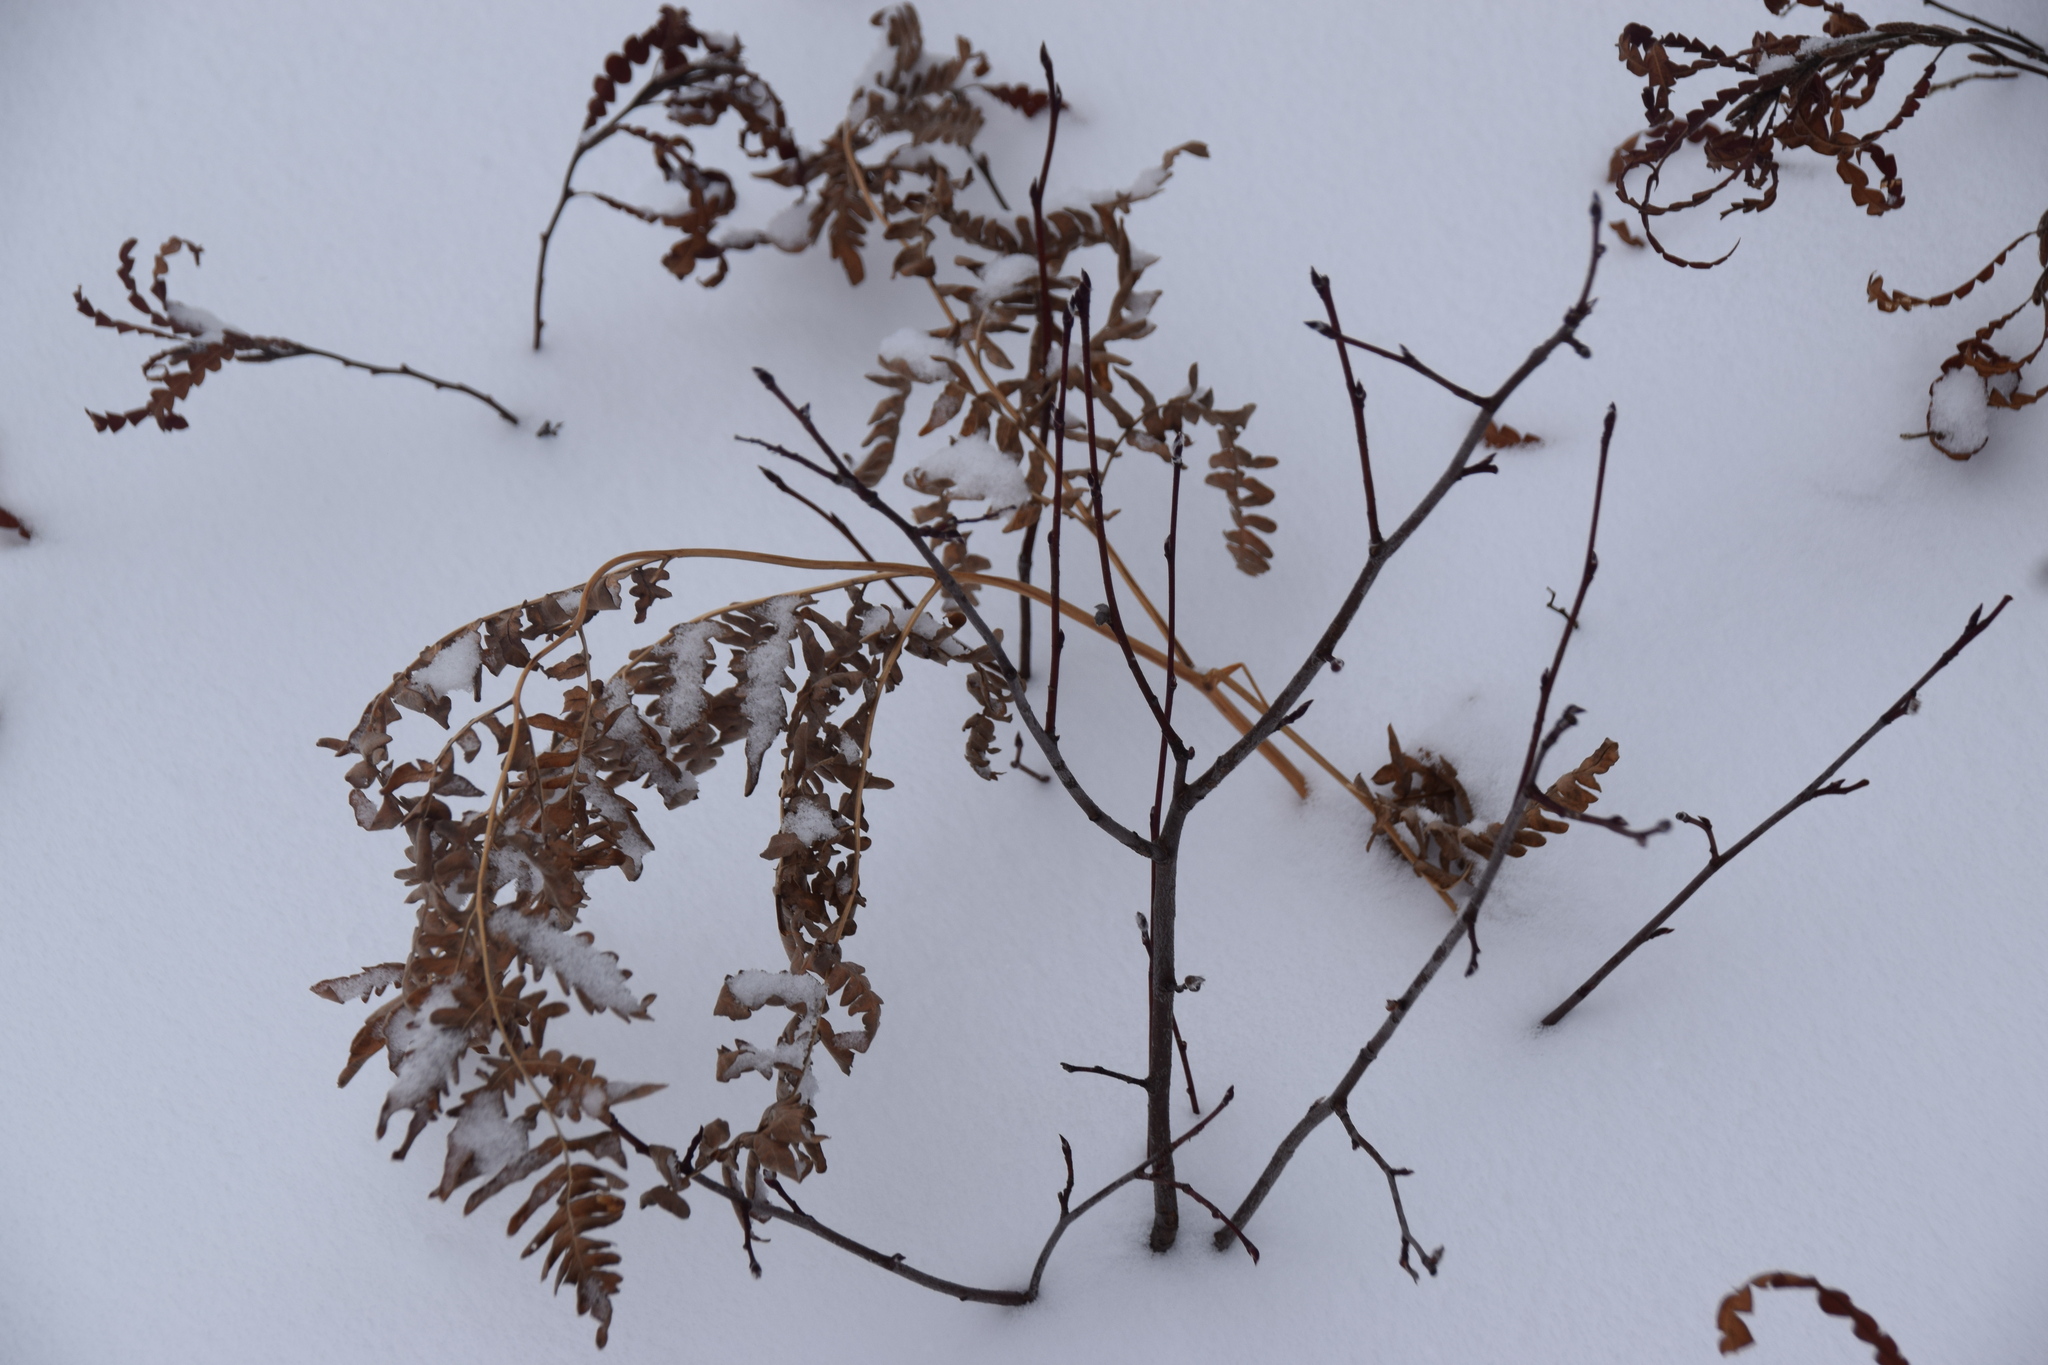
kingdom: Plantae
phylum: Tracheophyta
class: Polypodiopsida
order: Polypodiales
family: Dennstaedtiaceae
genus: Pteridium
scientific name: Pteridium aquilinum
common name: Bracken
